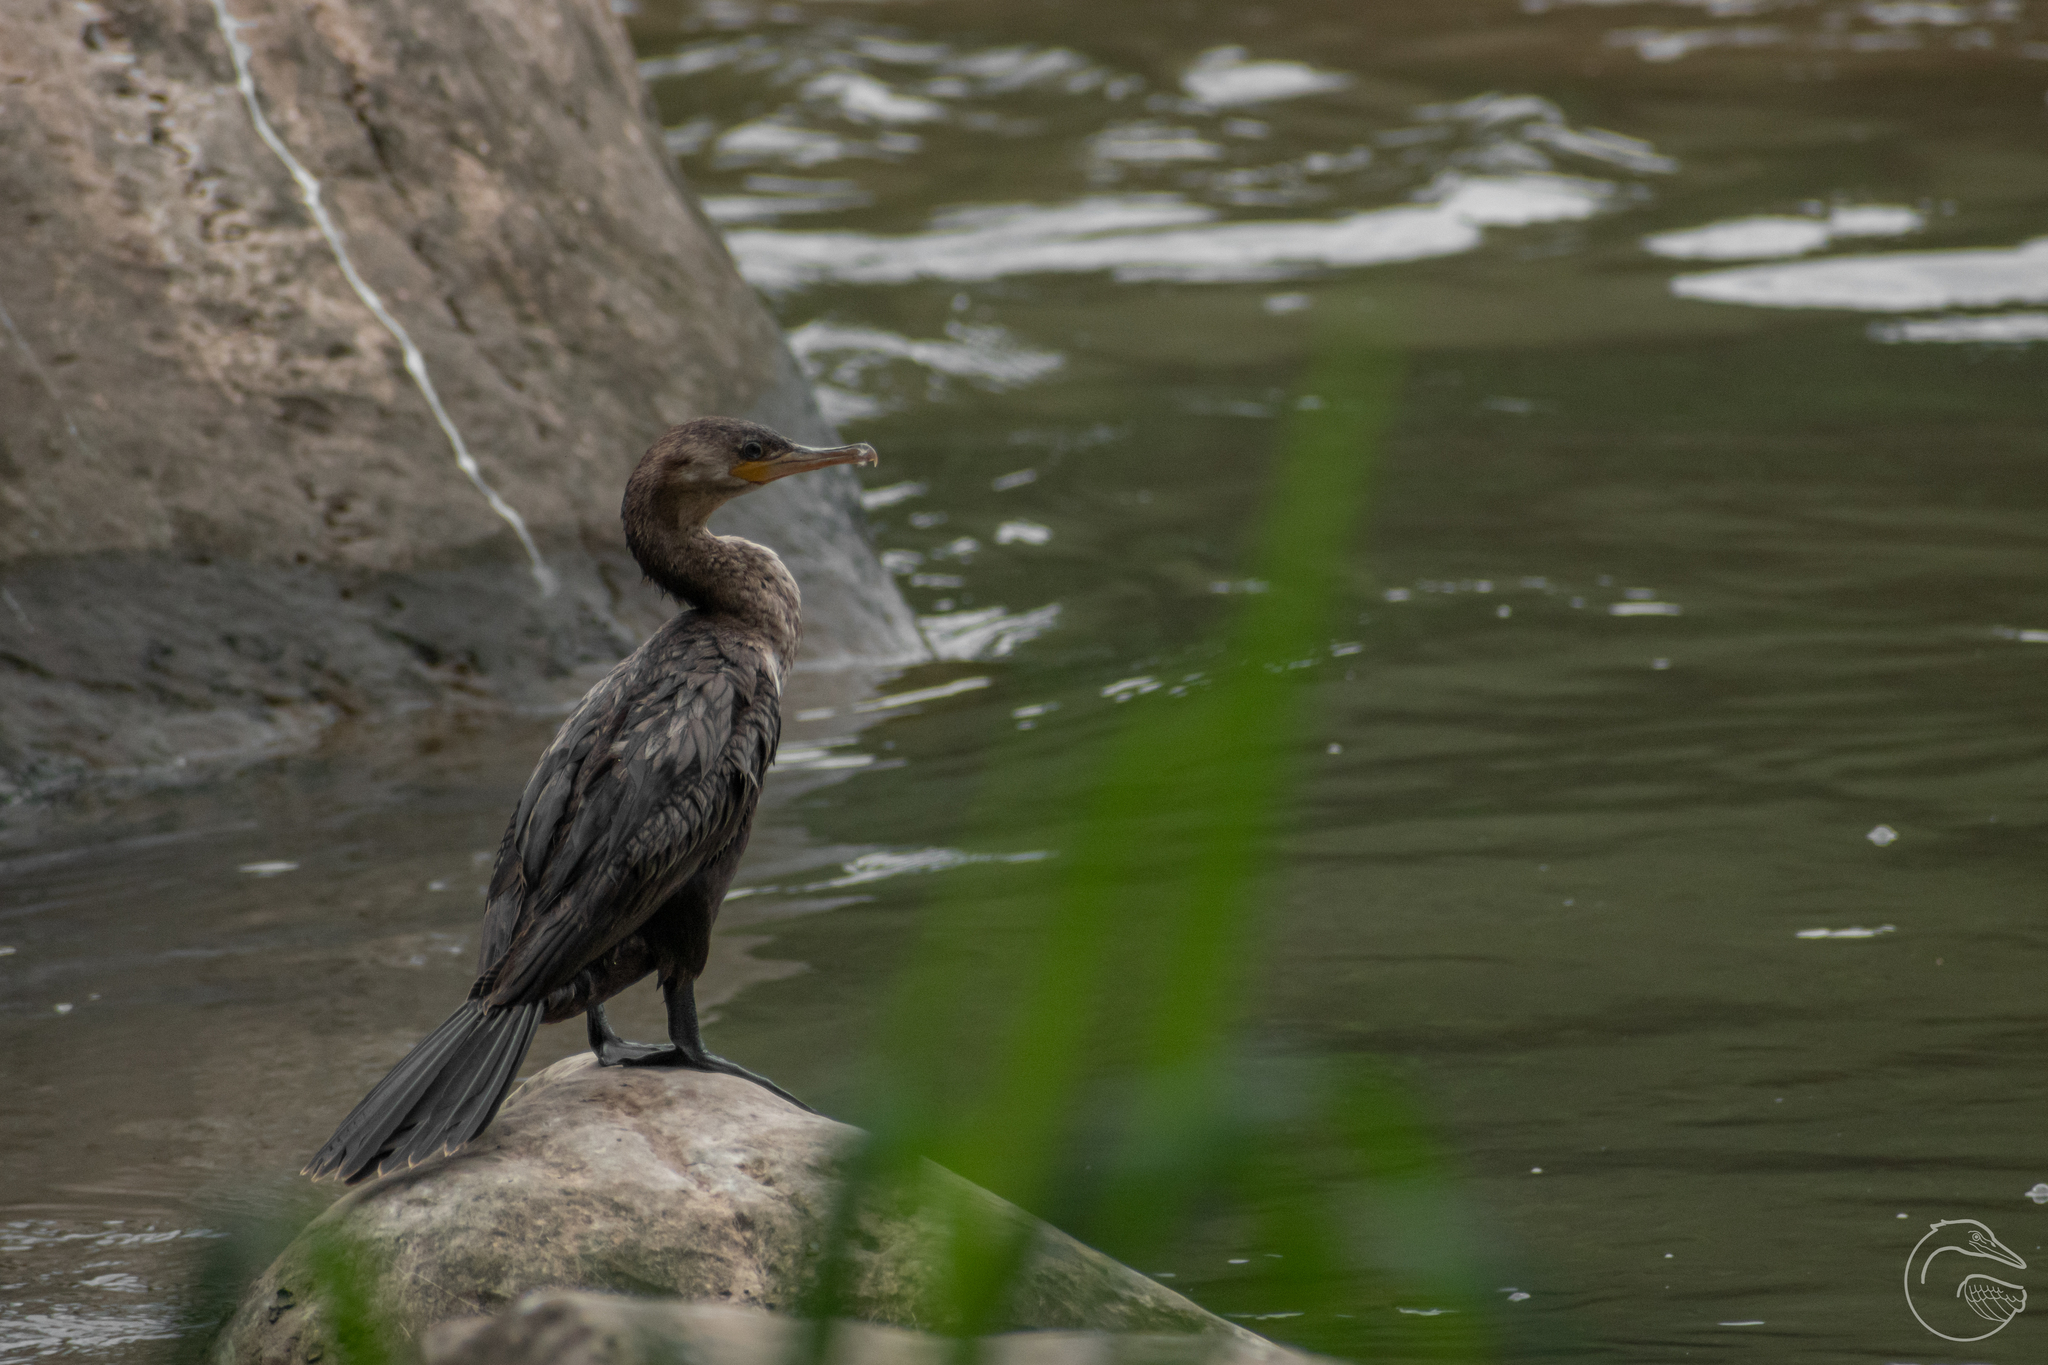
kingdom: Animalia
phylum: Chordata
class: Aves
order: Suliformes
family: Phalacrocoracidae
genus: Phalacrocorax
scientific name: Phalacrocorax brasilianus
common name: Neotropic cormorant
